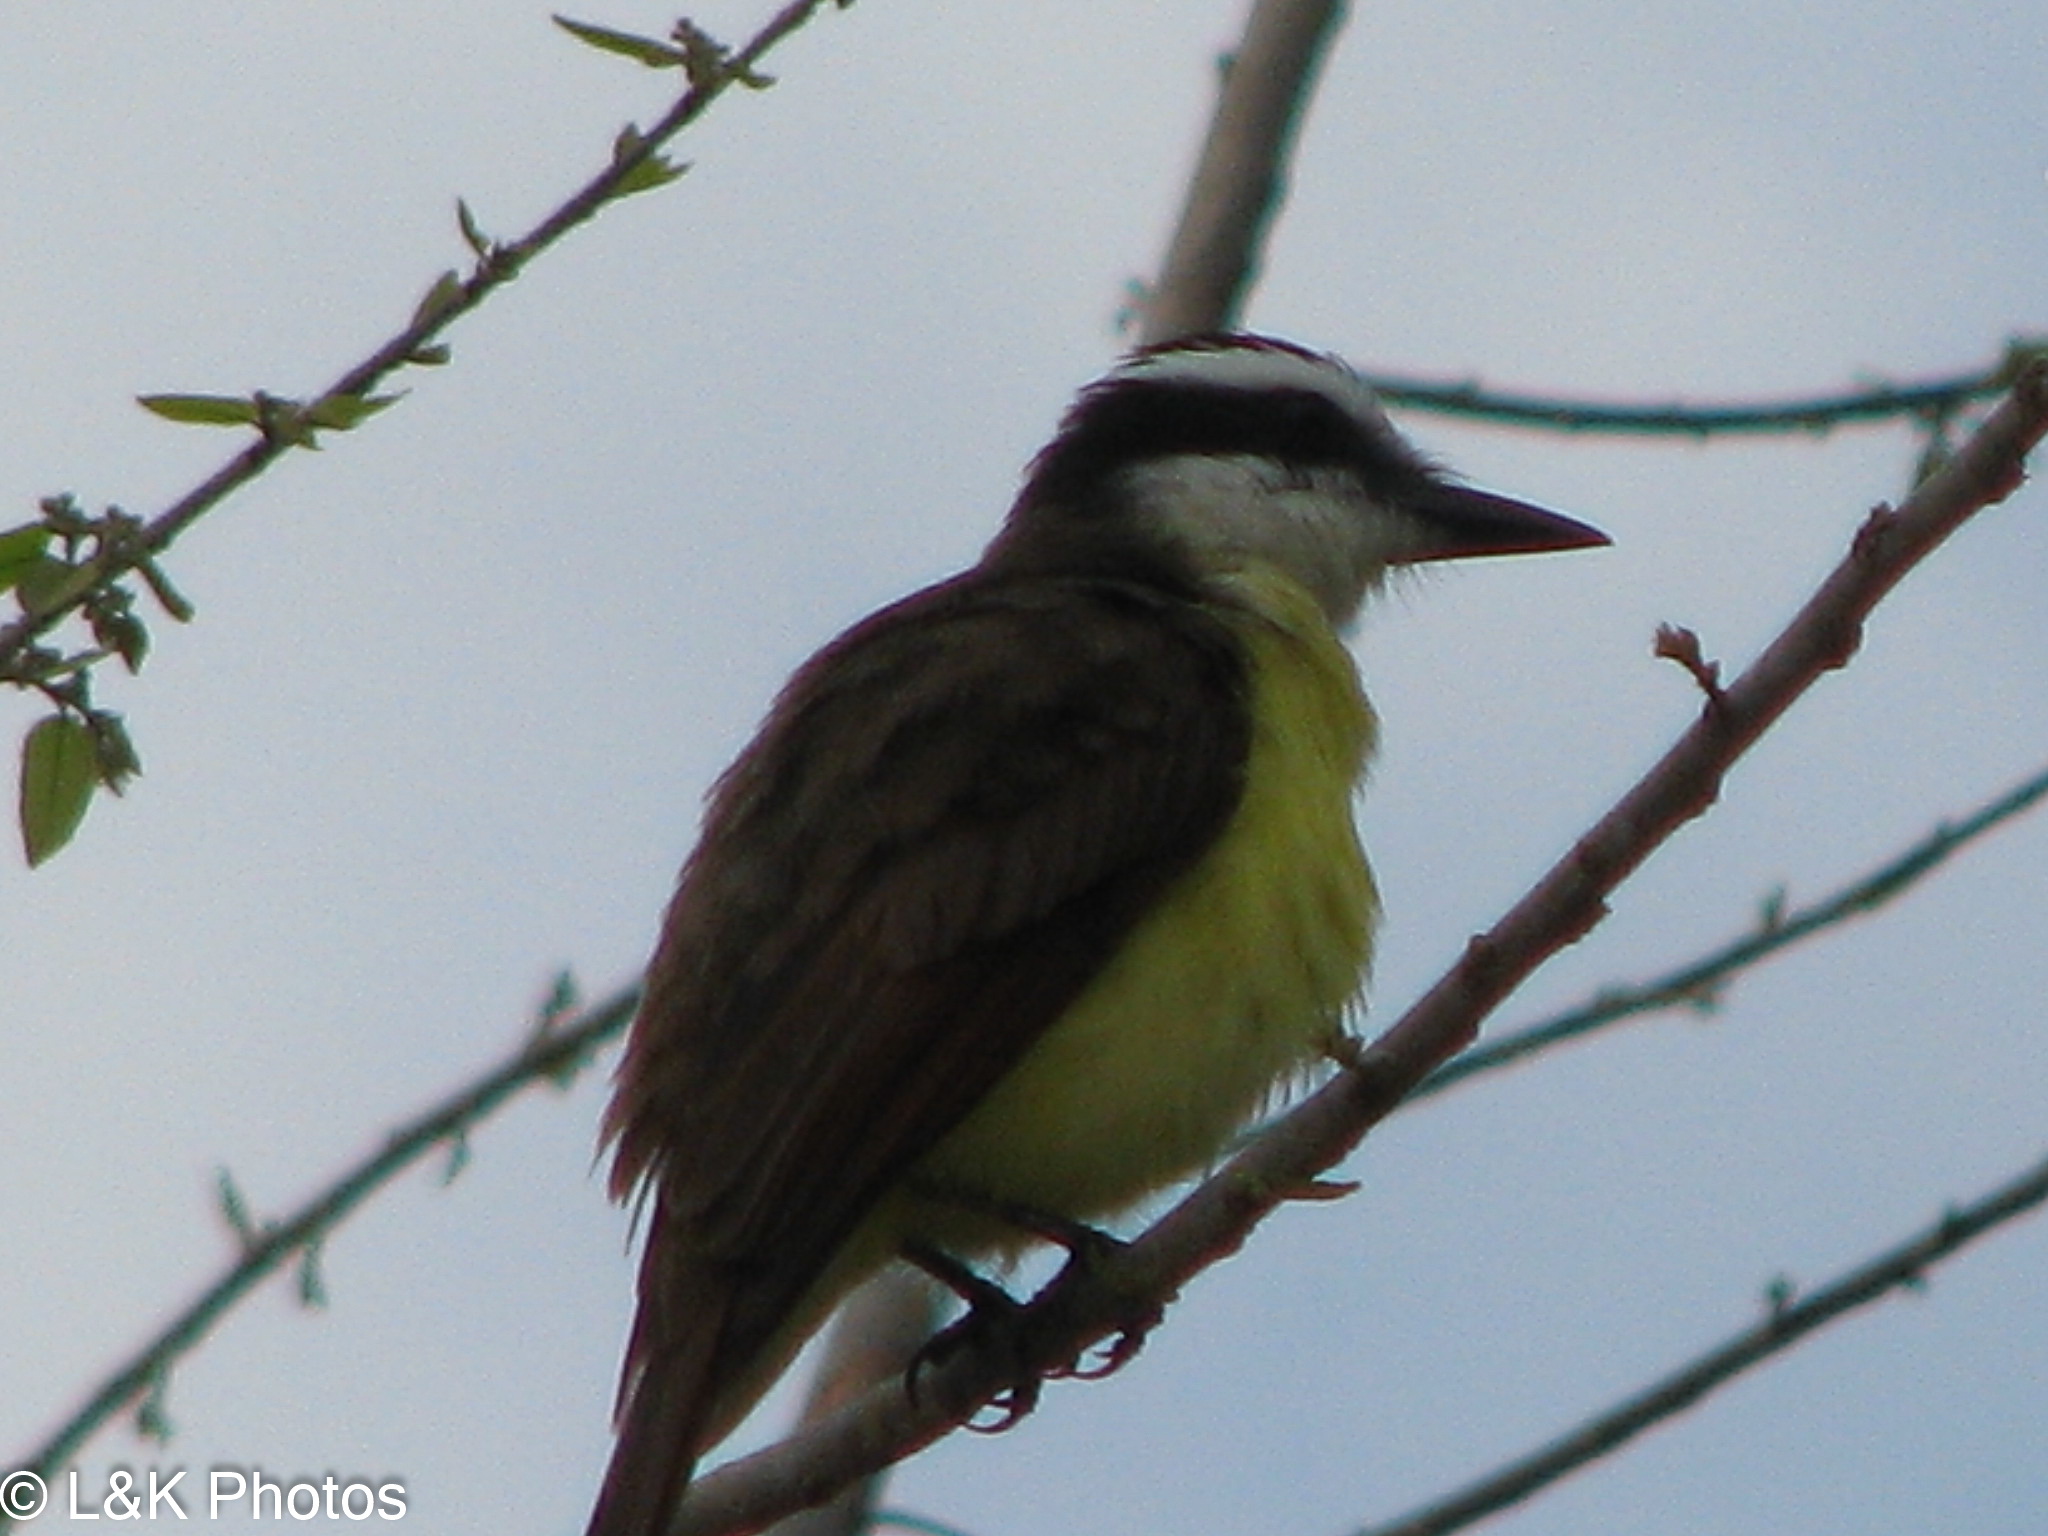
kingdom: Animalia
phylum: Chordata
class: Aves
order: Passeriformes
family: Tyrannidae
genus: Pitangus
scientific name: Pitangus sulphuratus
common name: Great kiskadee
